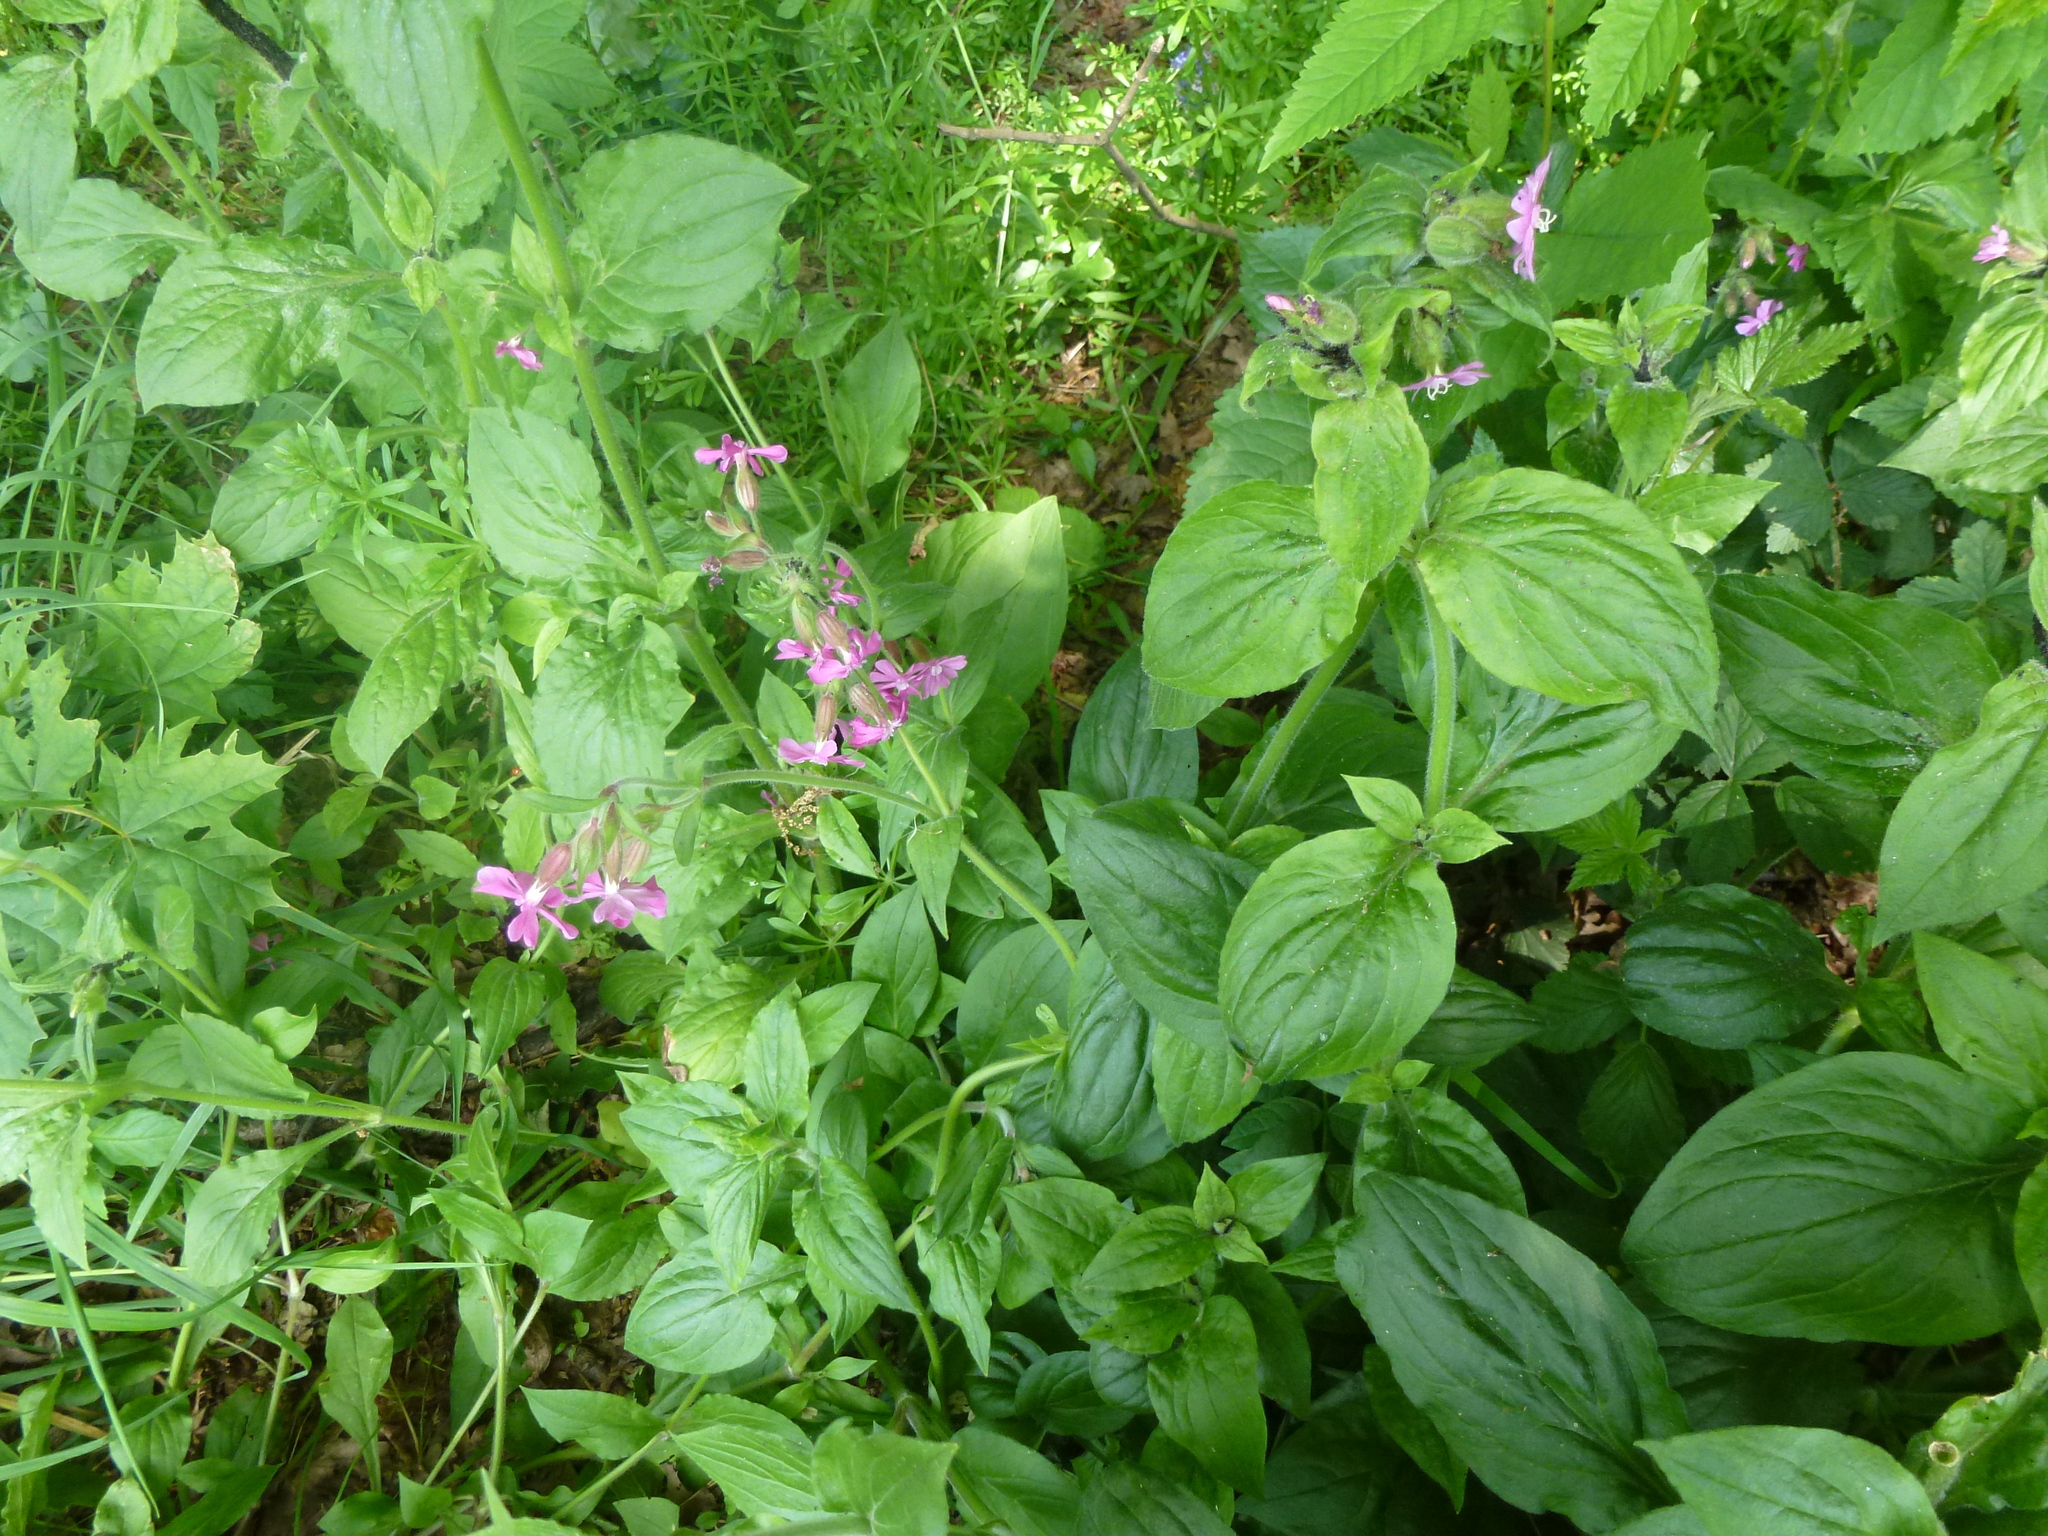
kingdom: Plantae
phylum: Tracheophyta
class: Magnoliopsida
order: Caryophyllales
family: Caryophyllaceae
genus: Silene
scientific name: Silene dioica
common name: Red campion
